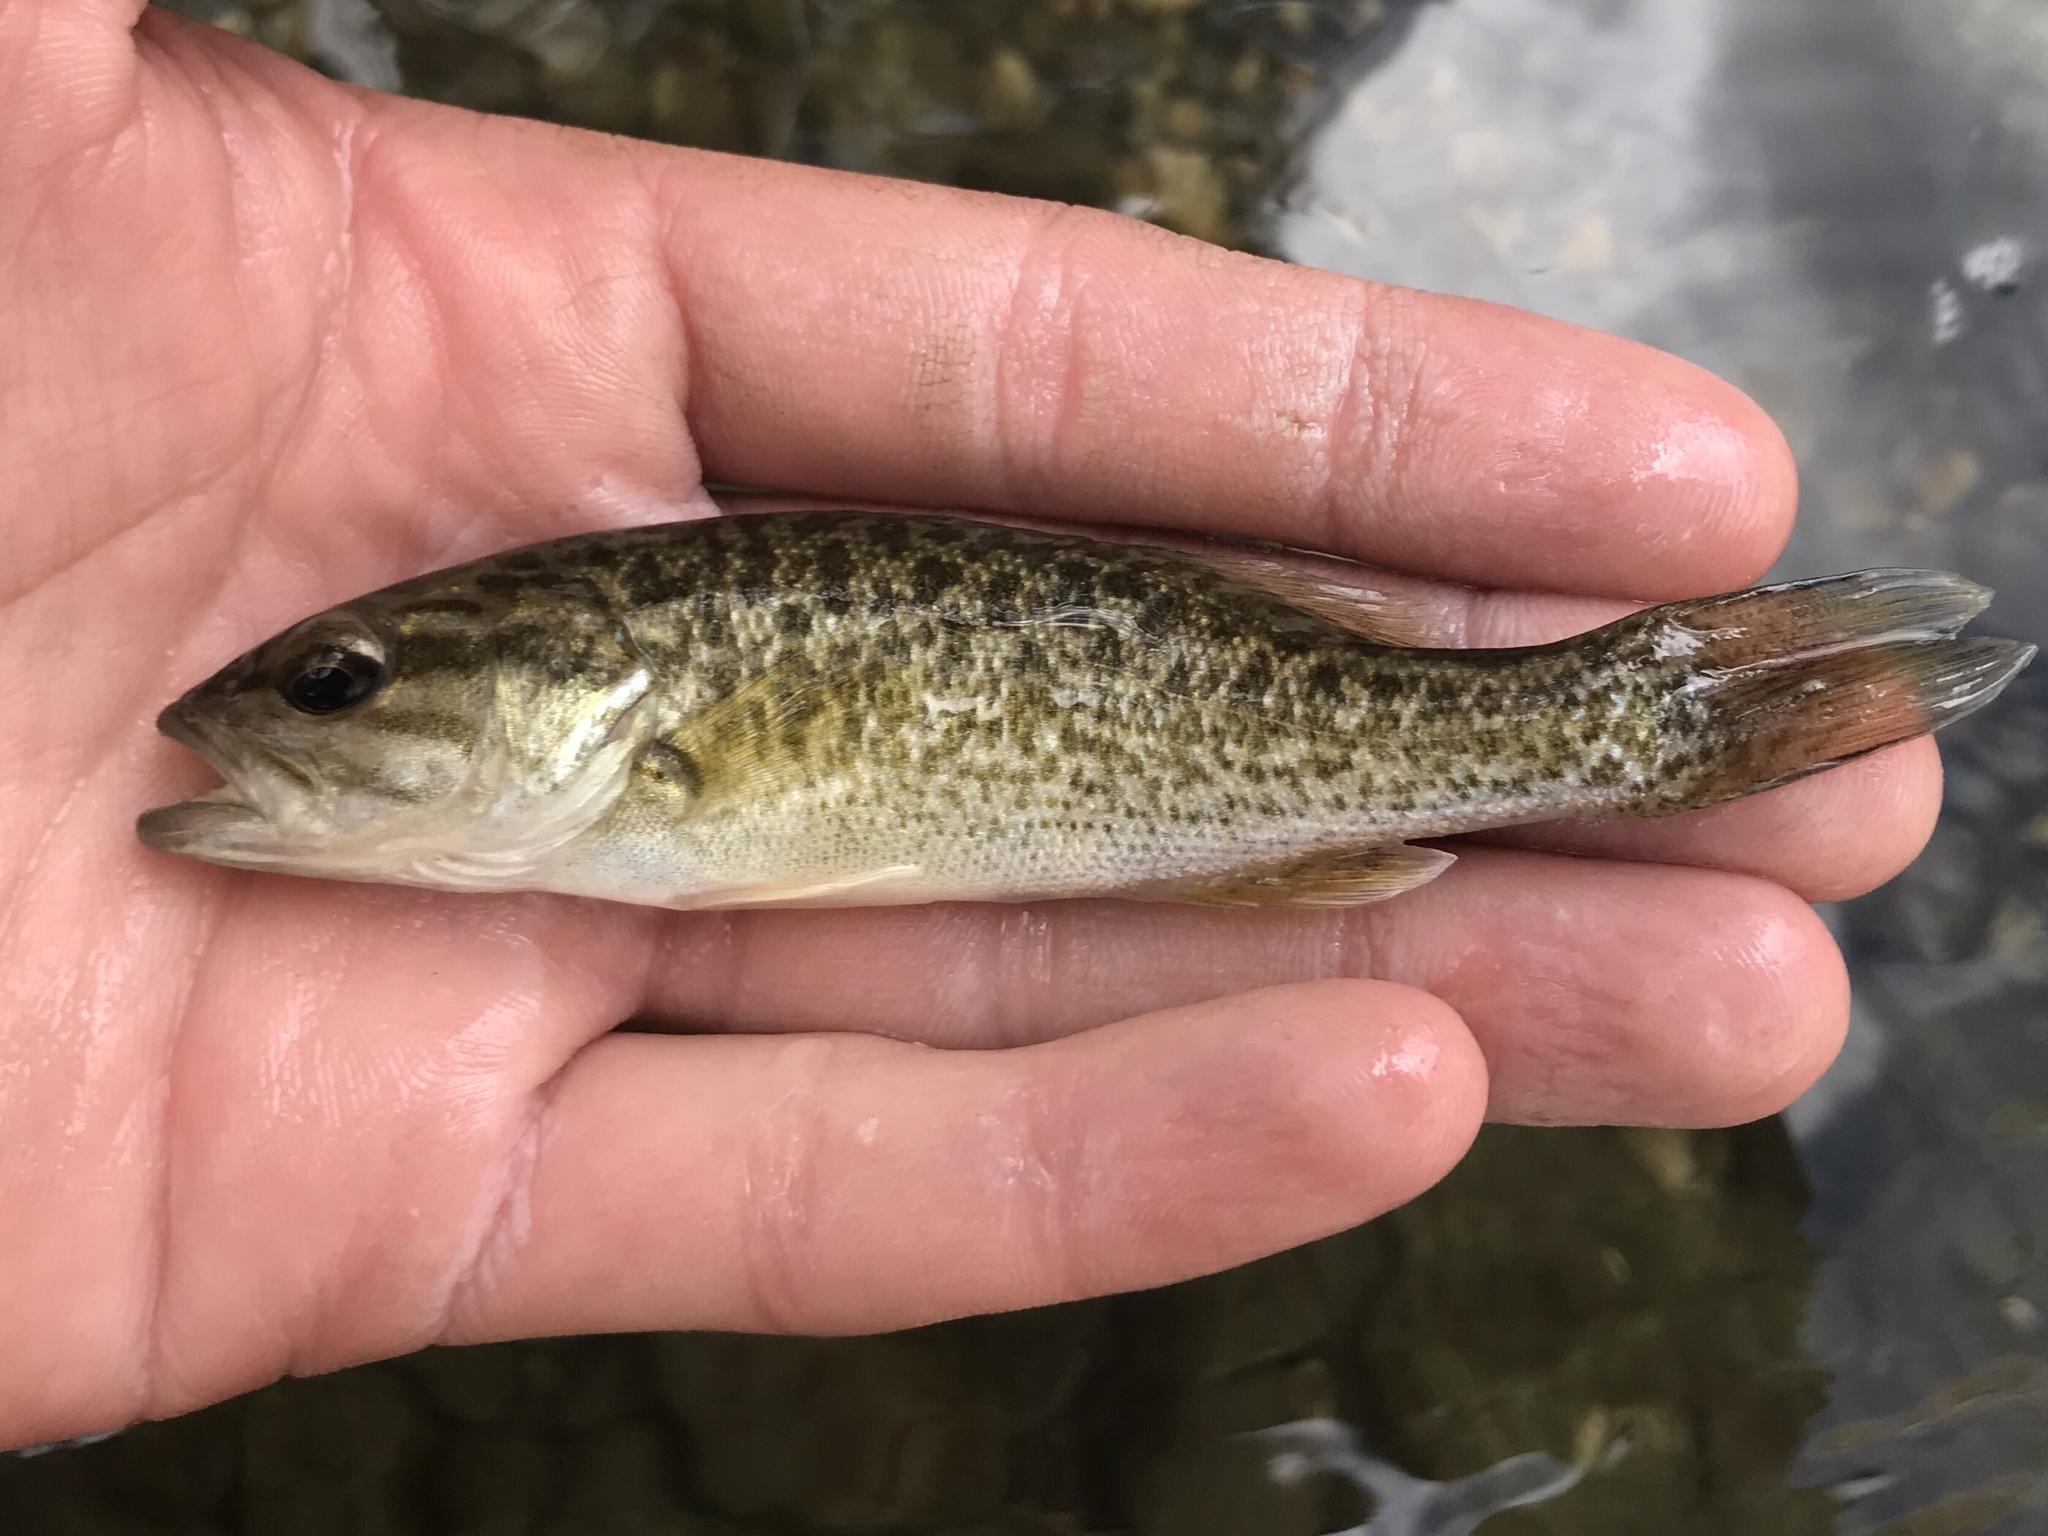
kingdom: Animalia
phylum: Chordata
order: Perciformes
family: Centrarchidae
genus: Micropterus
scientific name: Micropterus treculii
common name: Guadalupe bass
